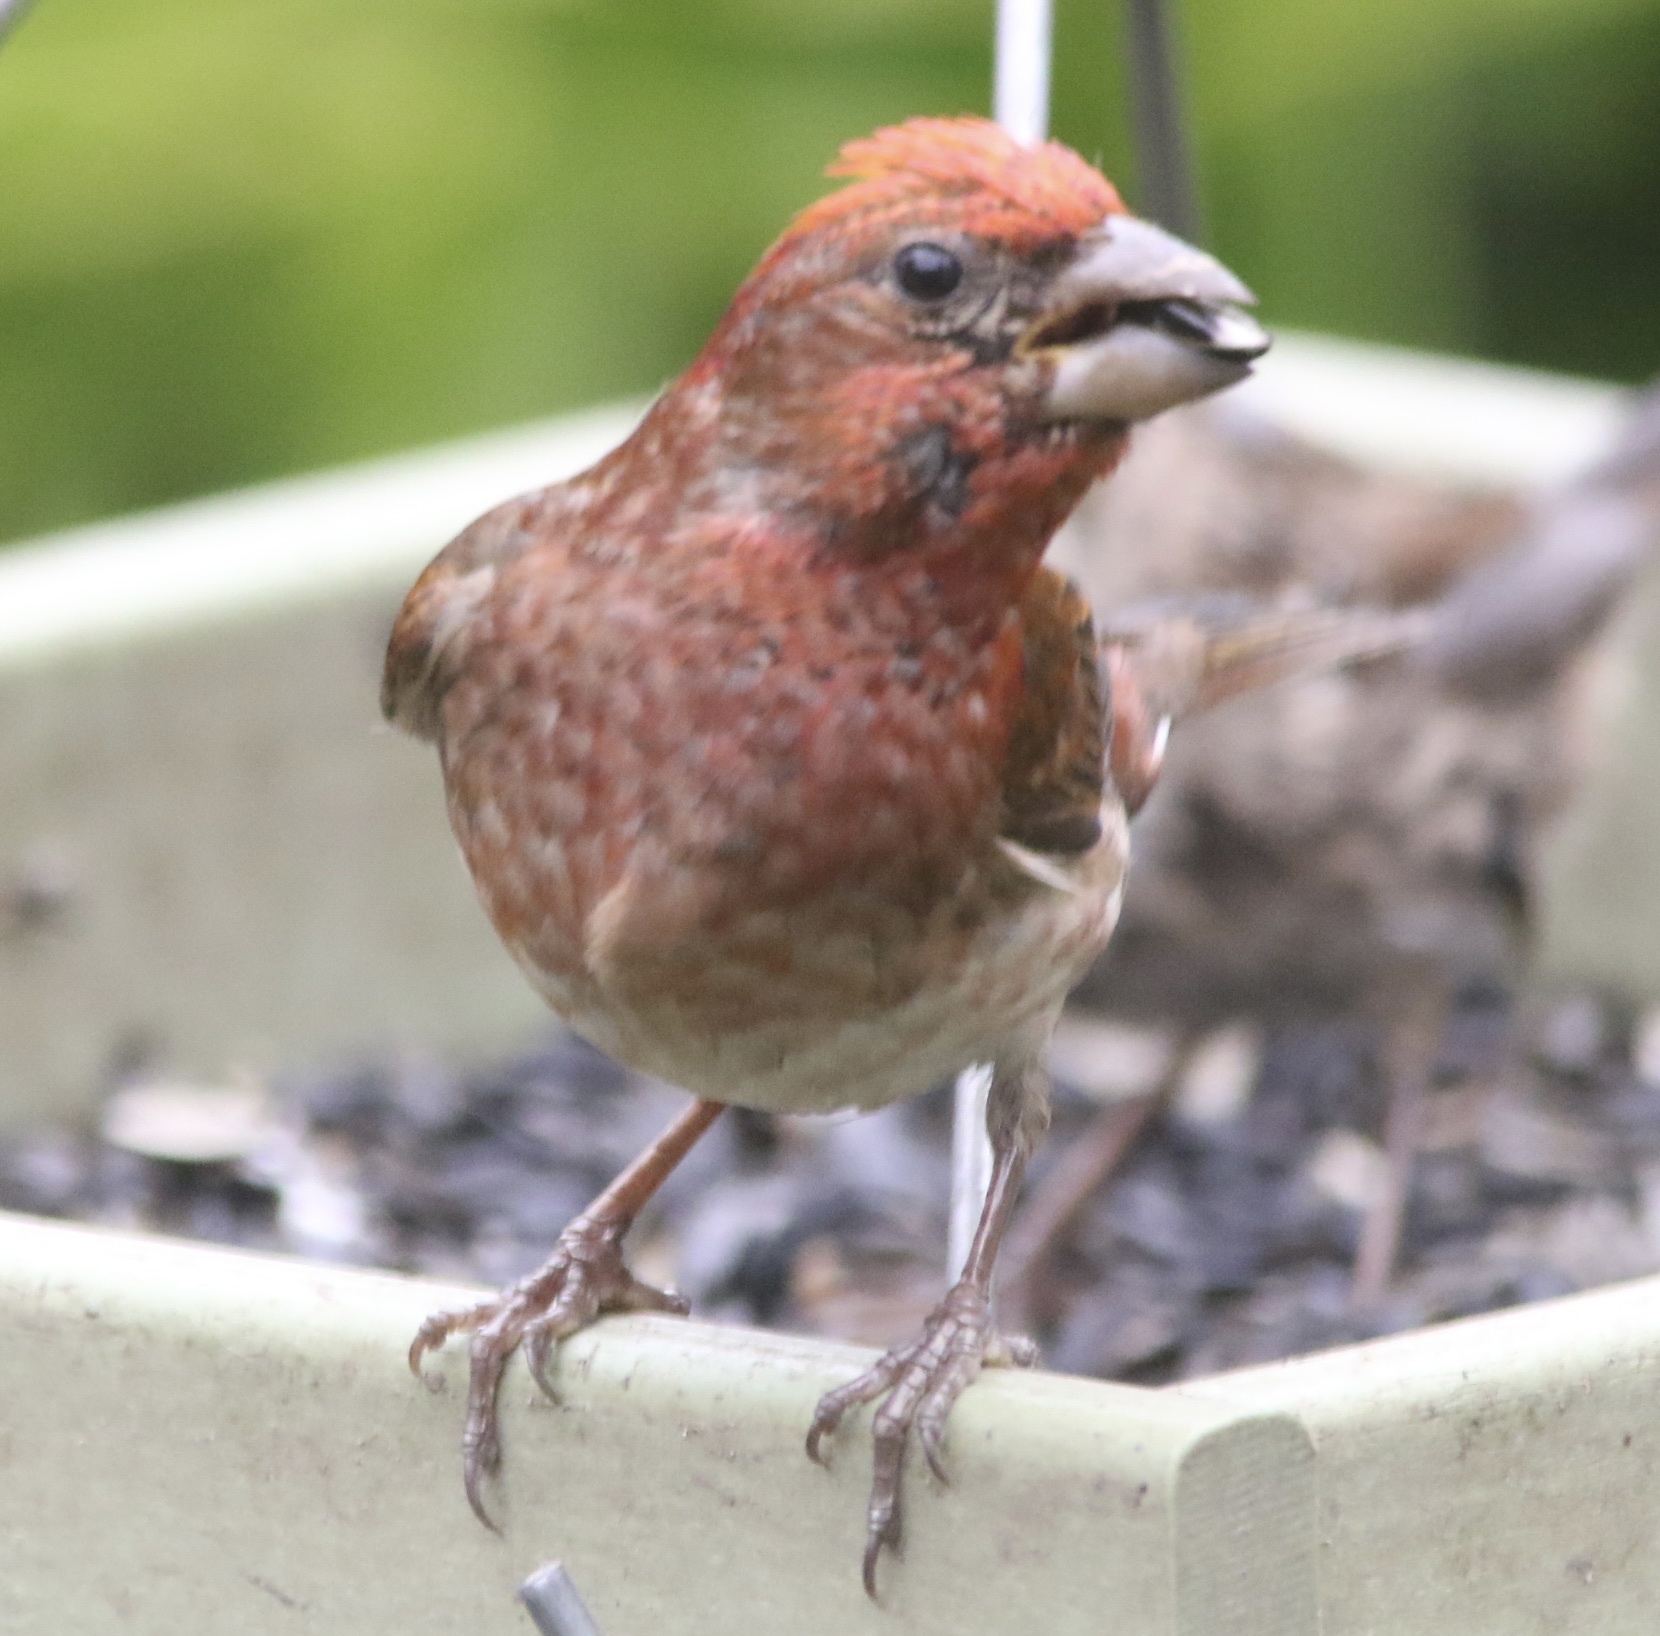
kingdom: Animalia
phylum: Chordata
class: Aves
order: Passeriformes
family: Fringillidae
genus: Haemorhous
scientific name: Haemorhous purpureus
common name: Purple finch
